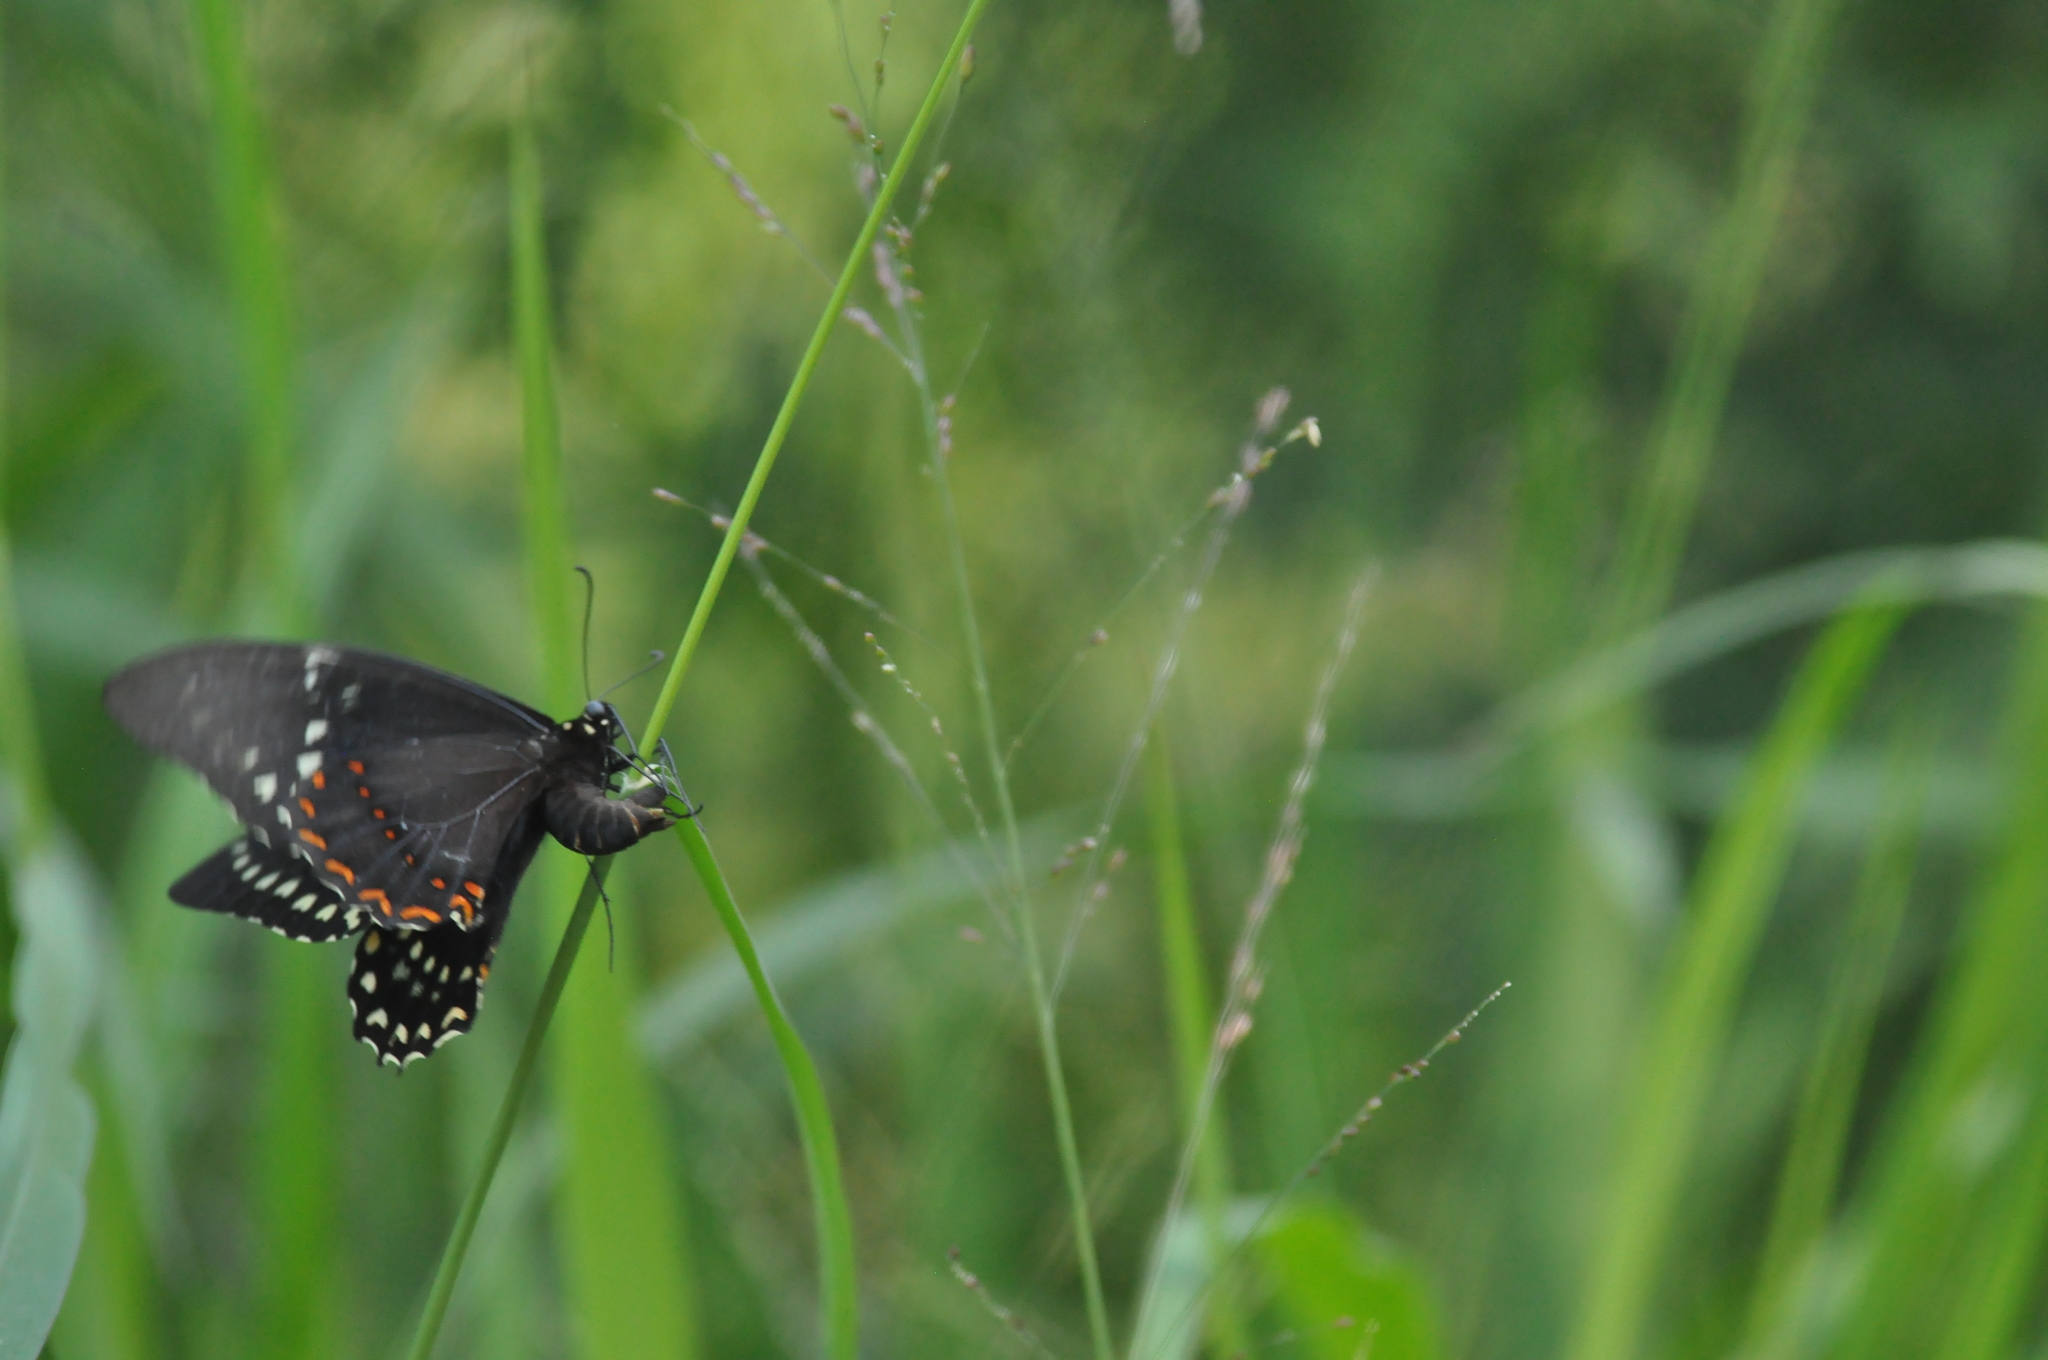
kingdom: Animalia
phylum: Arthropoda
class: Insecta
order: Lepidoptera
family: Papilionidae
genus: Papilio
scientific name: Papilio menatius
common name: Victorine swallowtail
